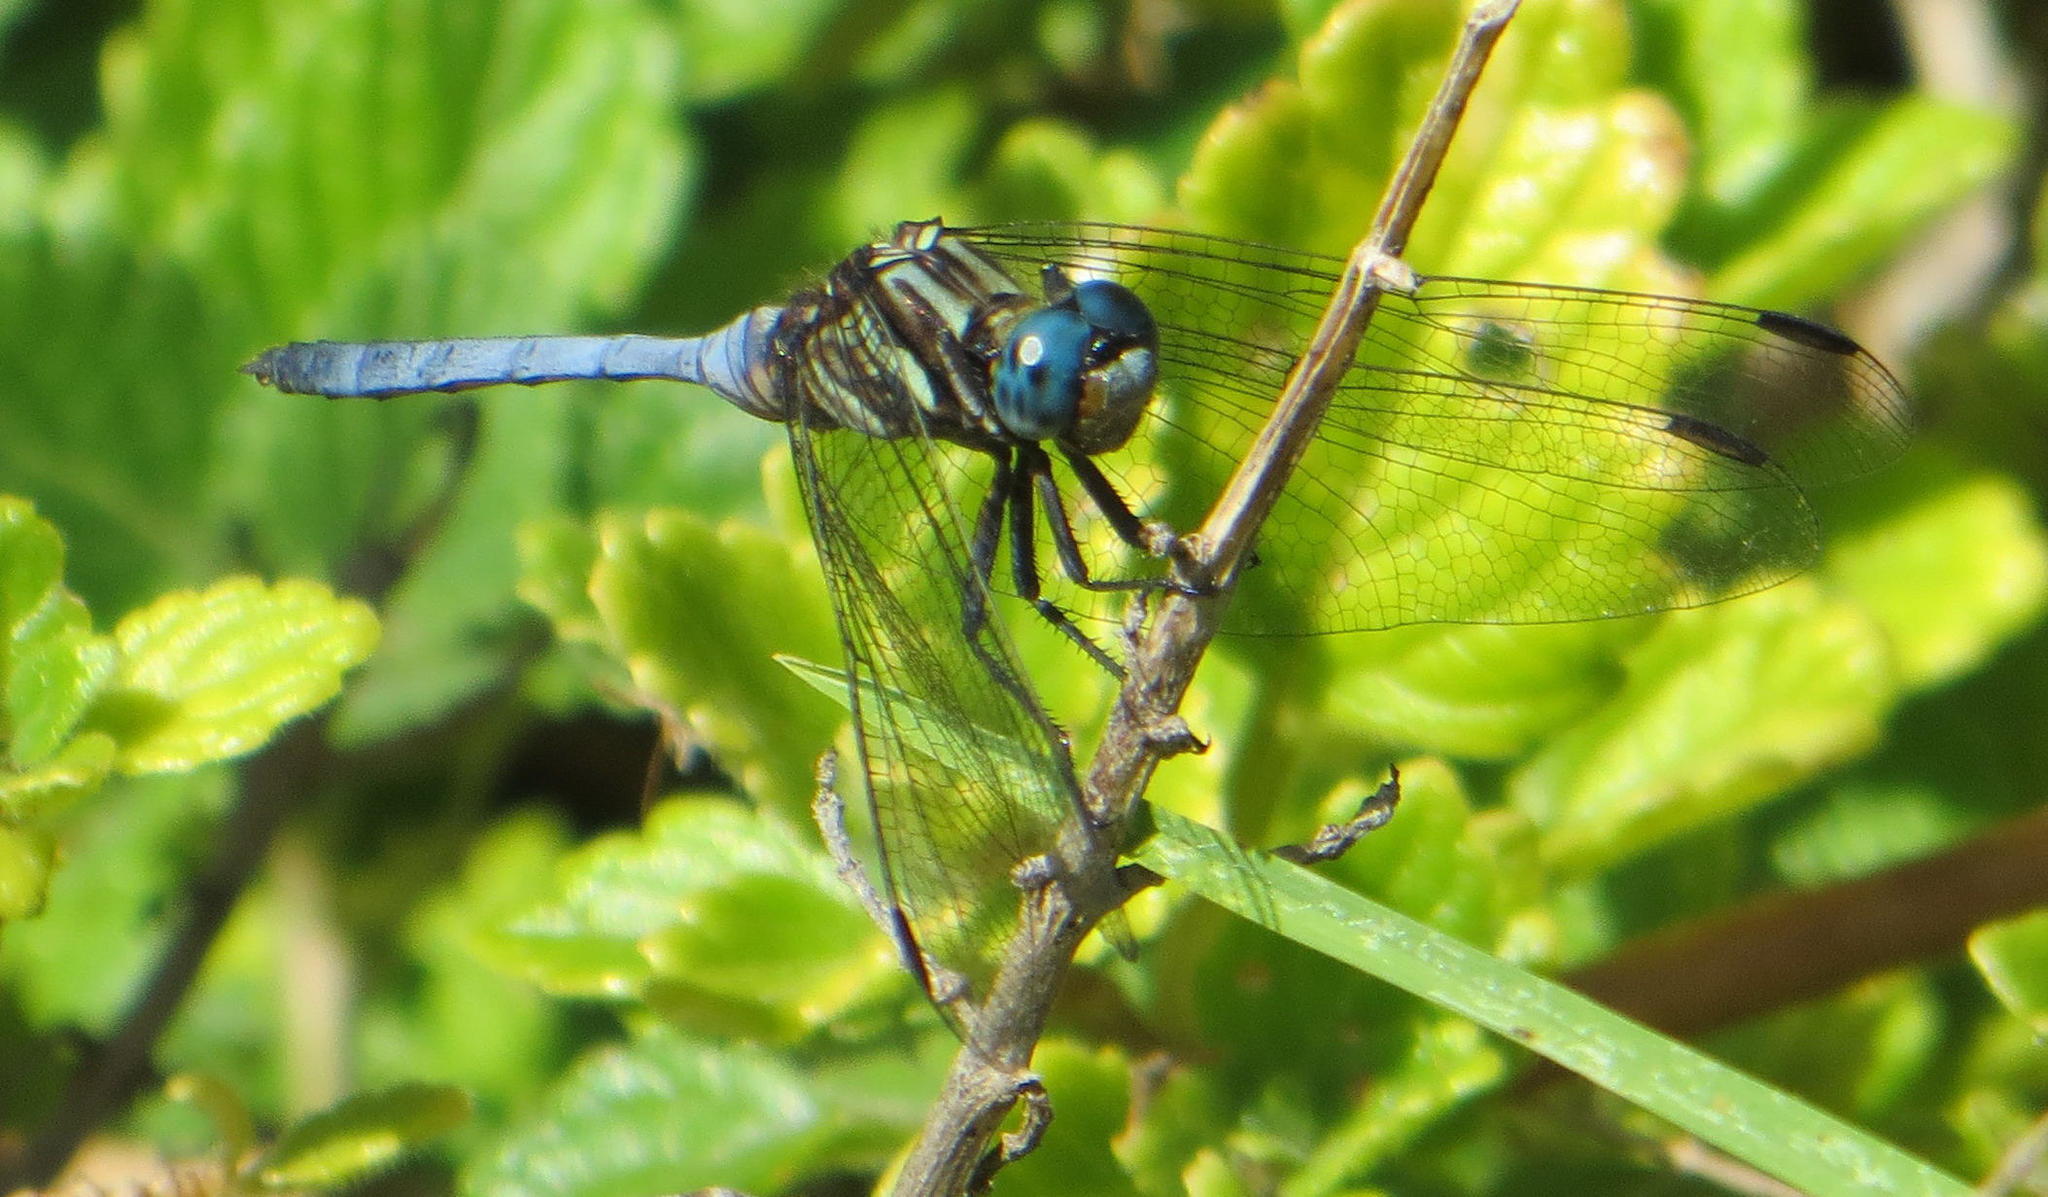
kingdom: Animalia
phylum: Arthropoda
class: Insecta
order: Odonata
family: Libellulidae
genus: Orthetrum
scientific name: Orthetrum caffrum
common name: Two-striped skimmer
